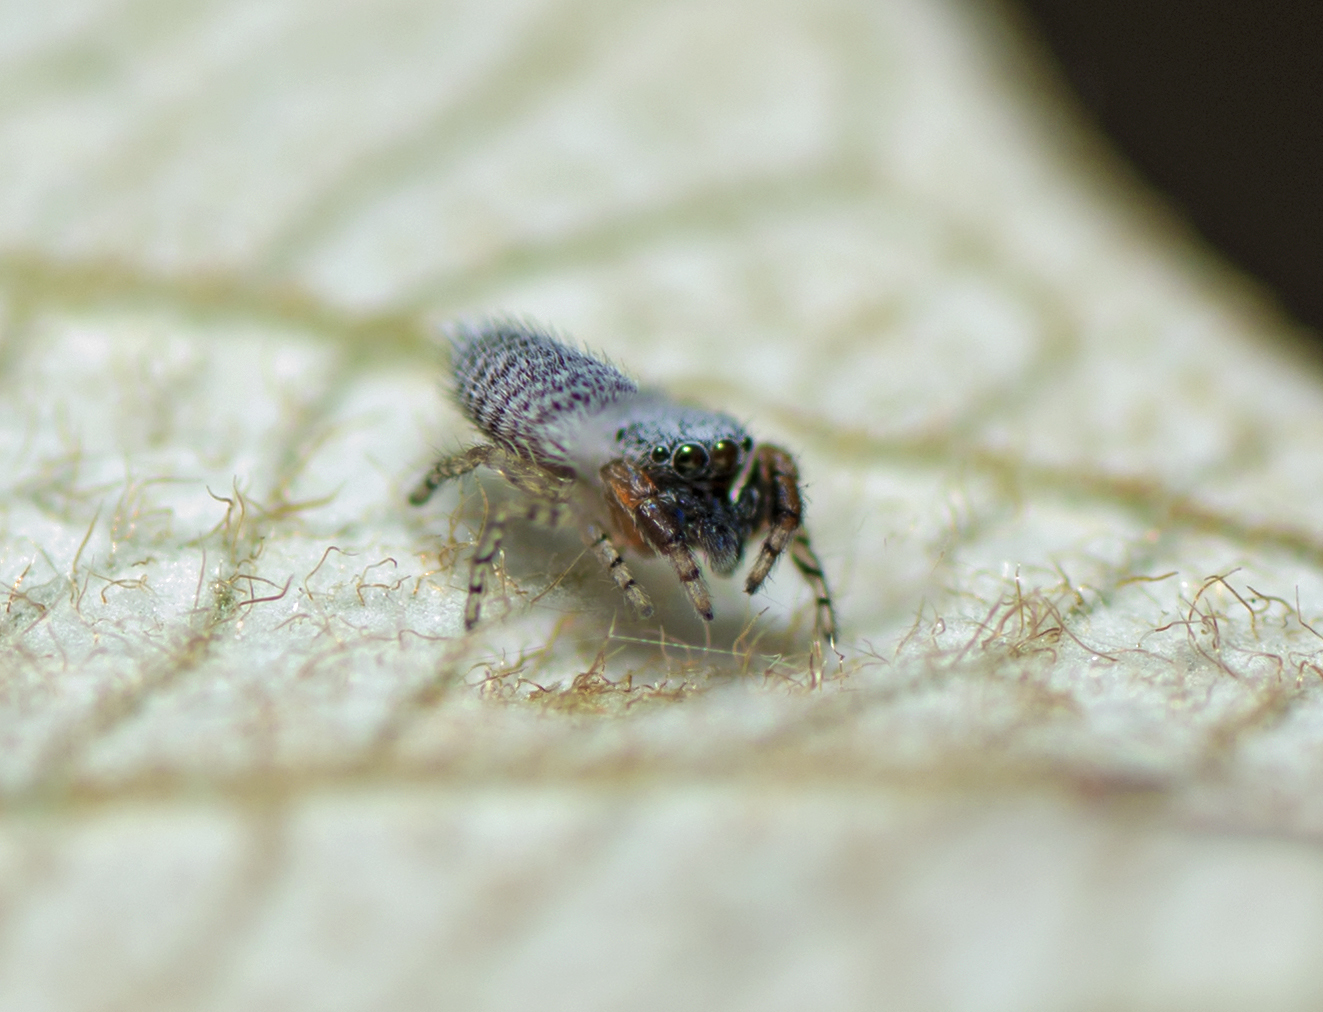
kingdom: Animalia
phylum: Arthropoda
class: Arachnida
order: Araneae
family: Salticidae
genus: Urogelides
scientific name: Urogelides daviesae
